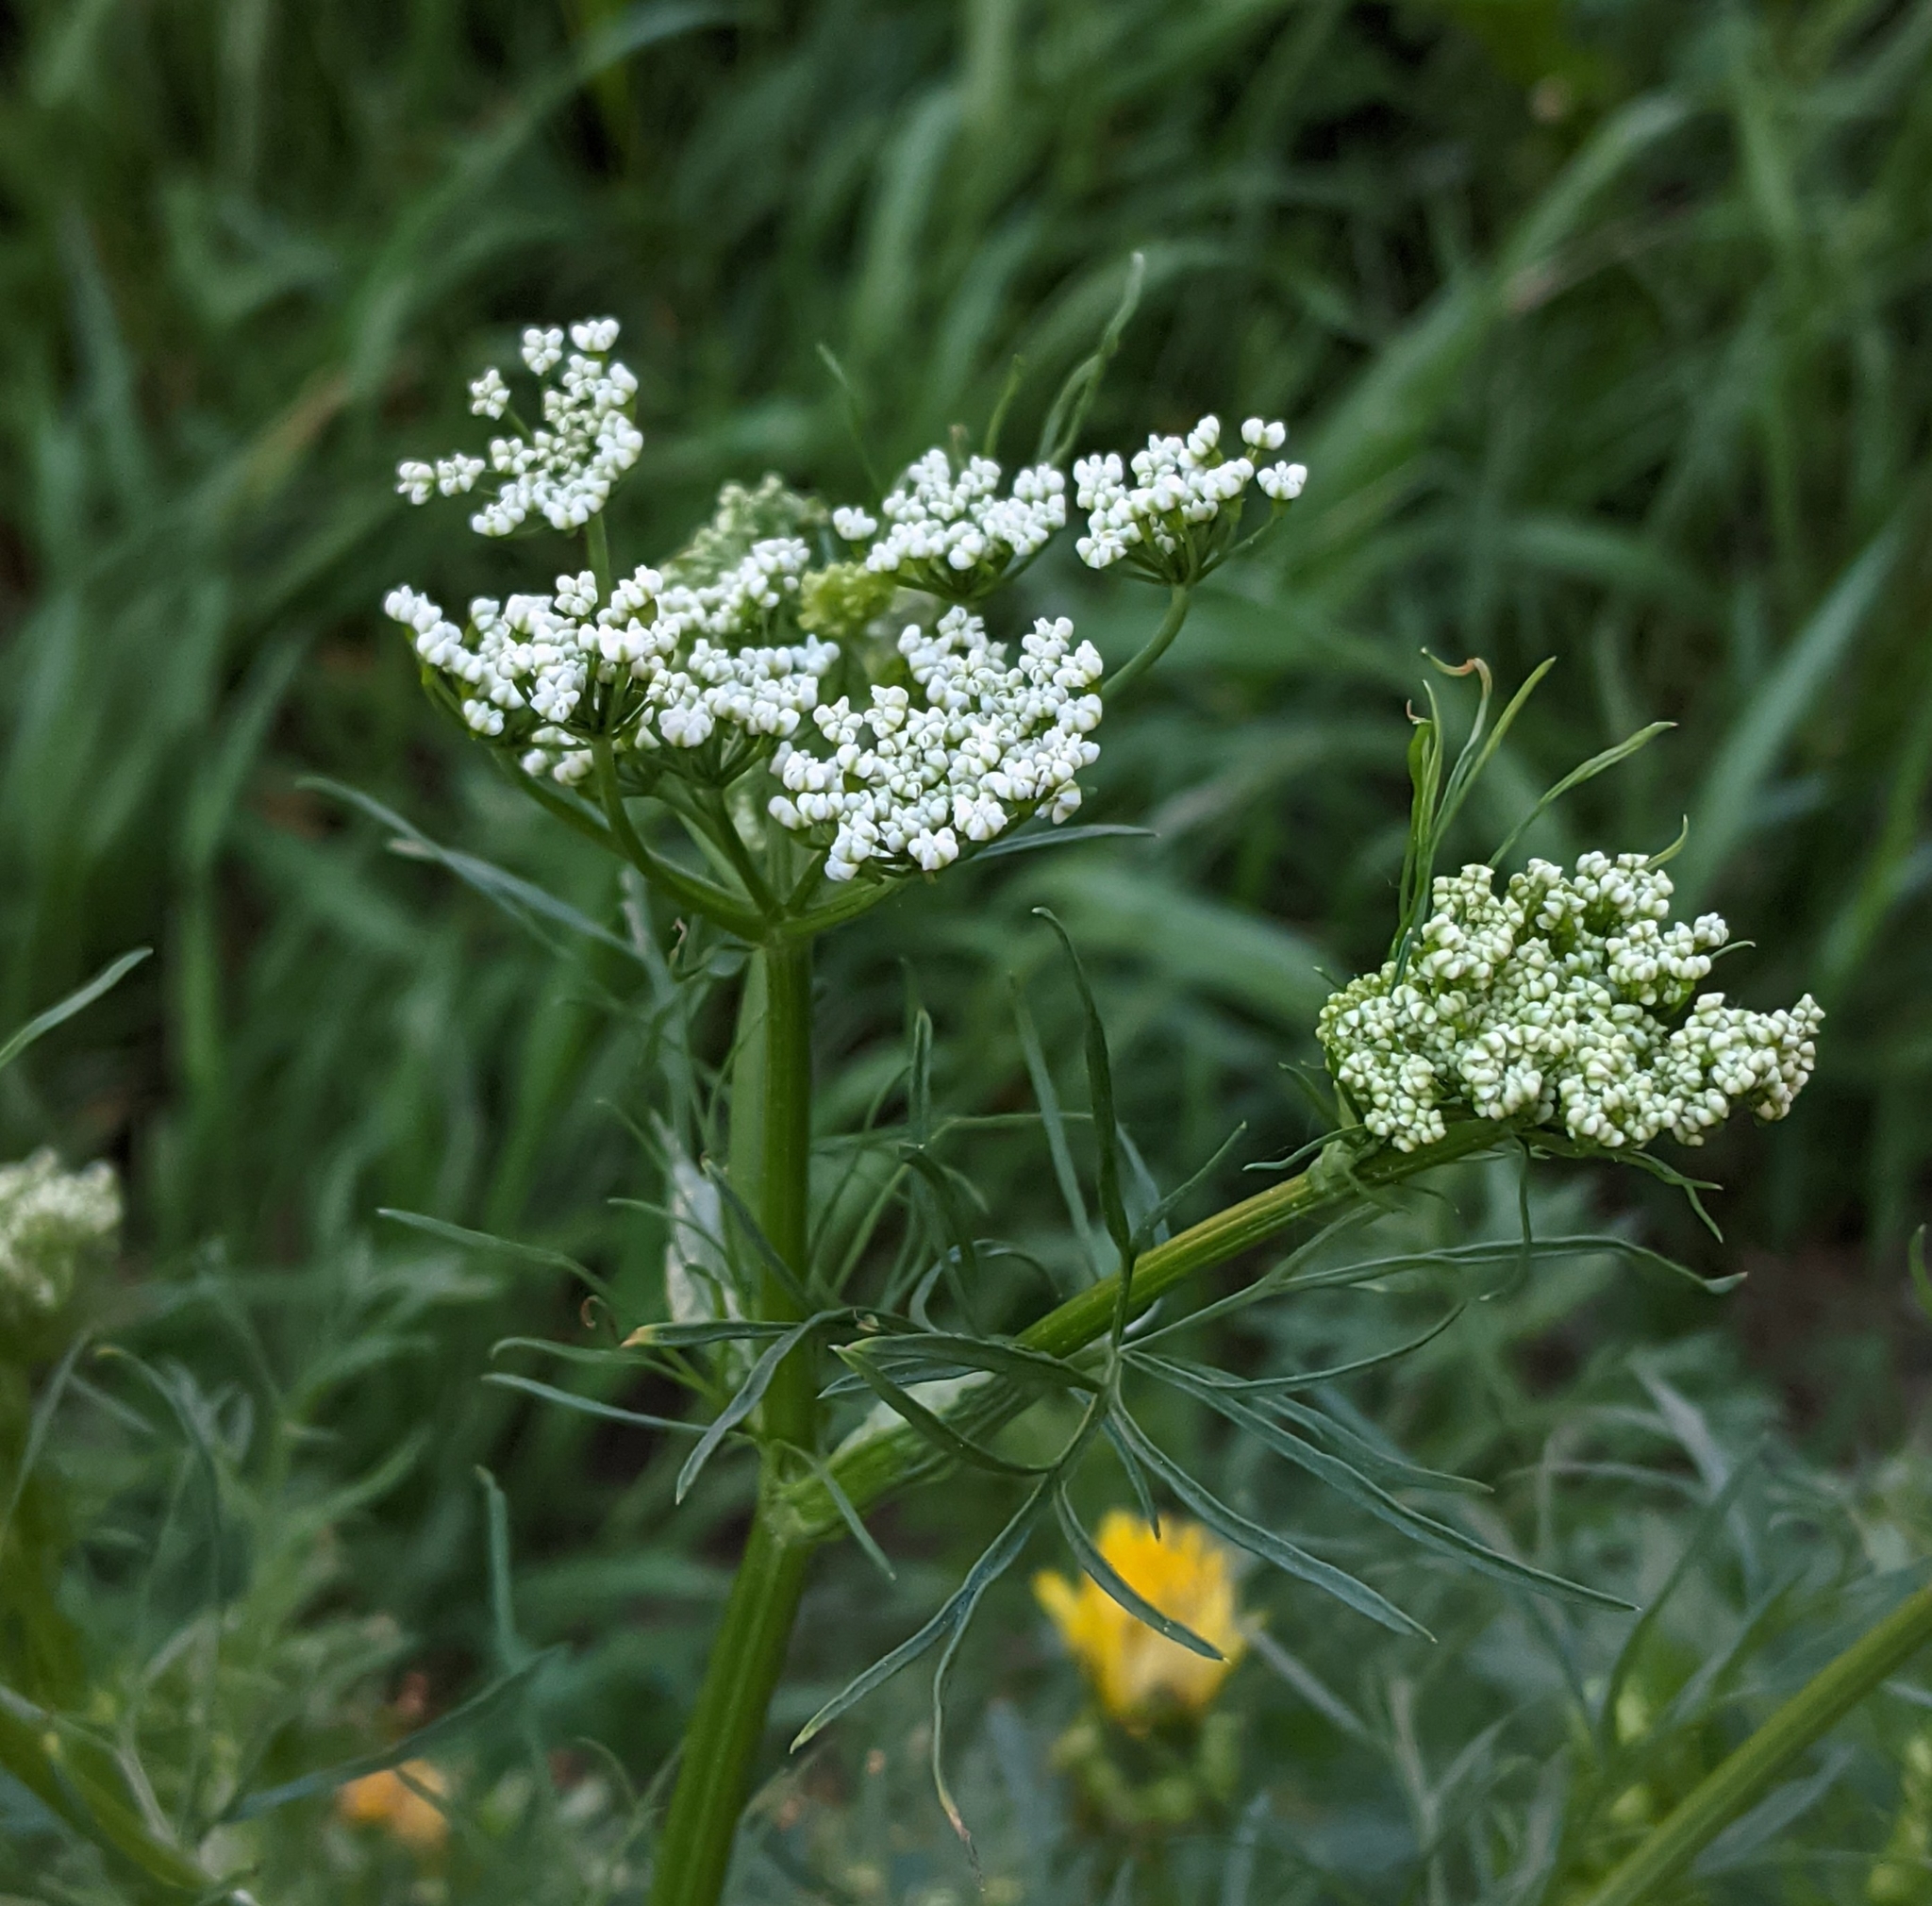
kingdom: Plantae
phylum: Tracheophyta
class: Magnoliopsida
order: Apiales
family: Apiaceae
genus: Carum
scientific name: Carum carvi
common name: Caraway
